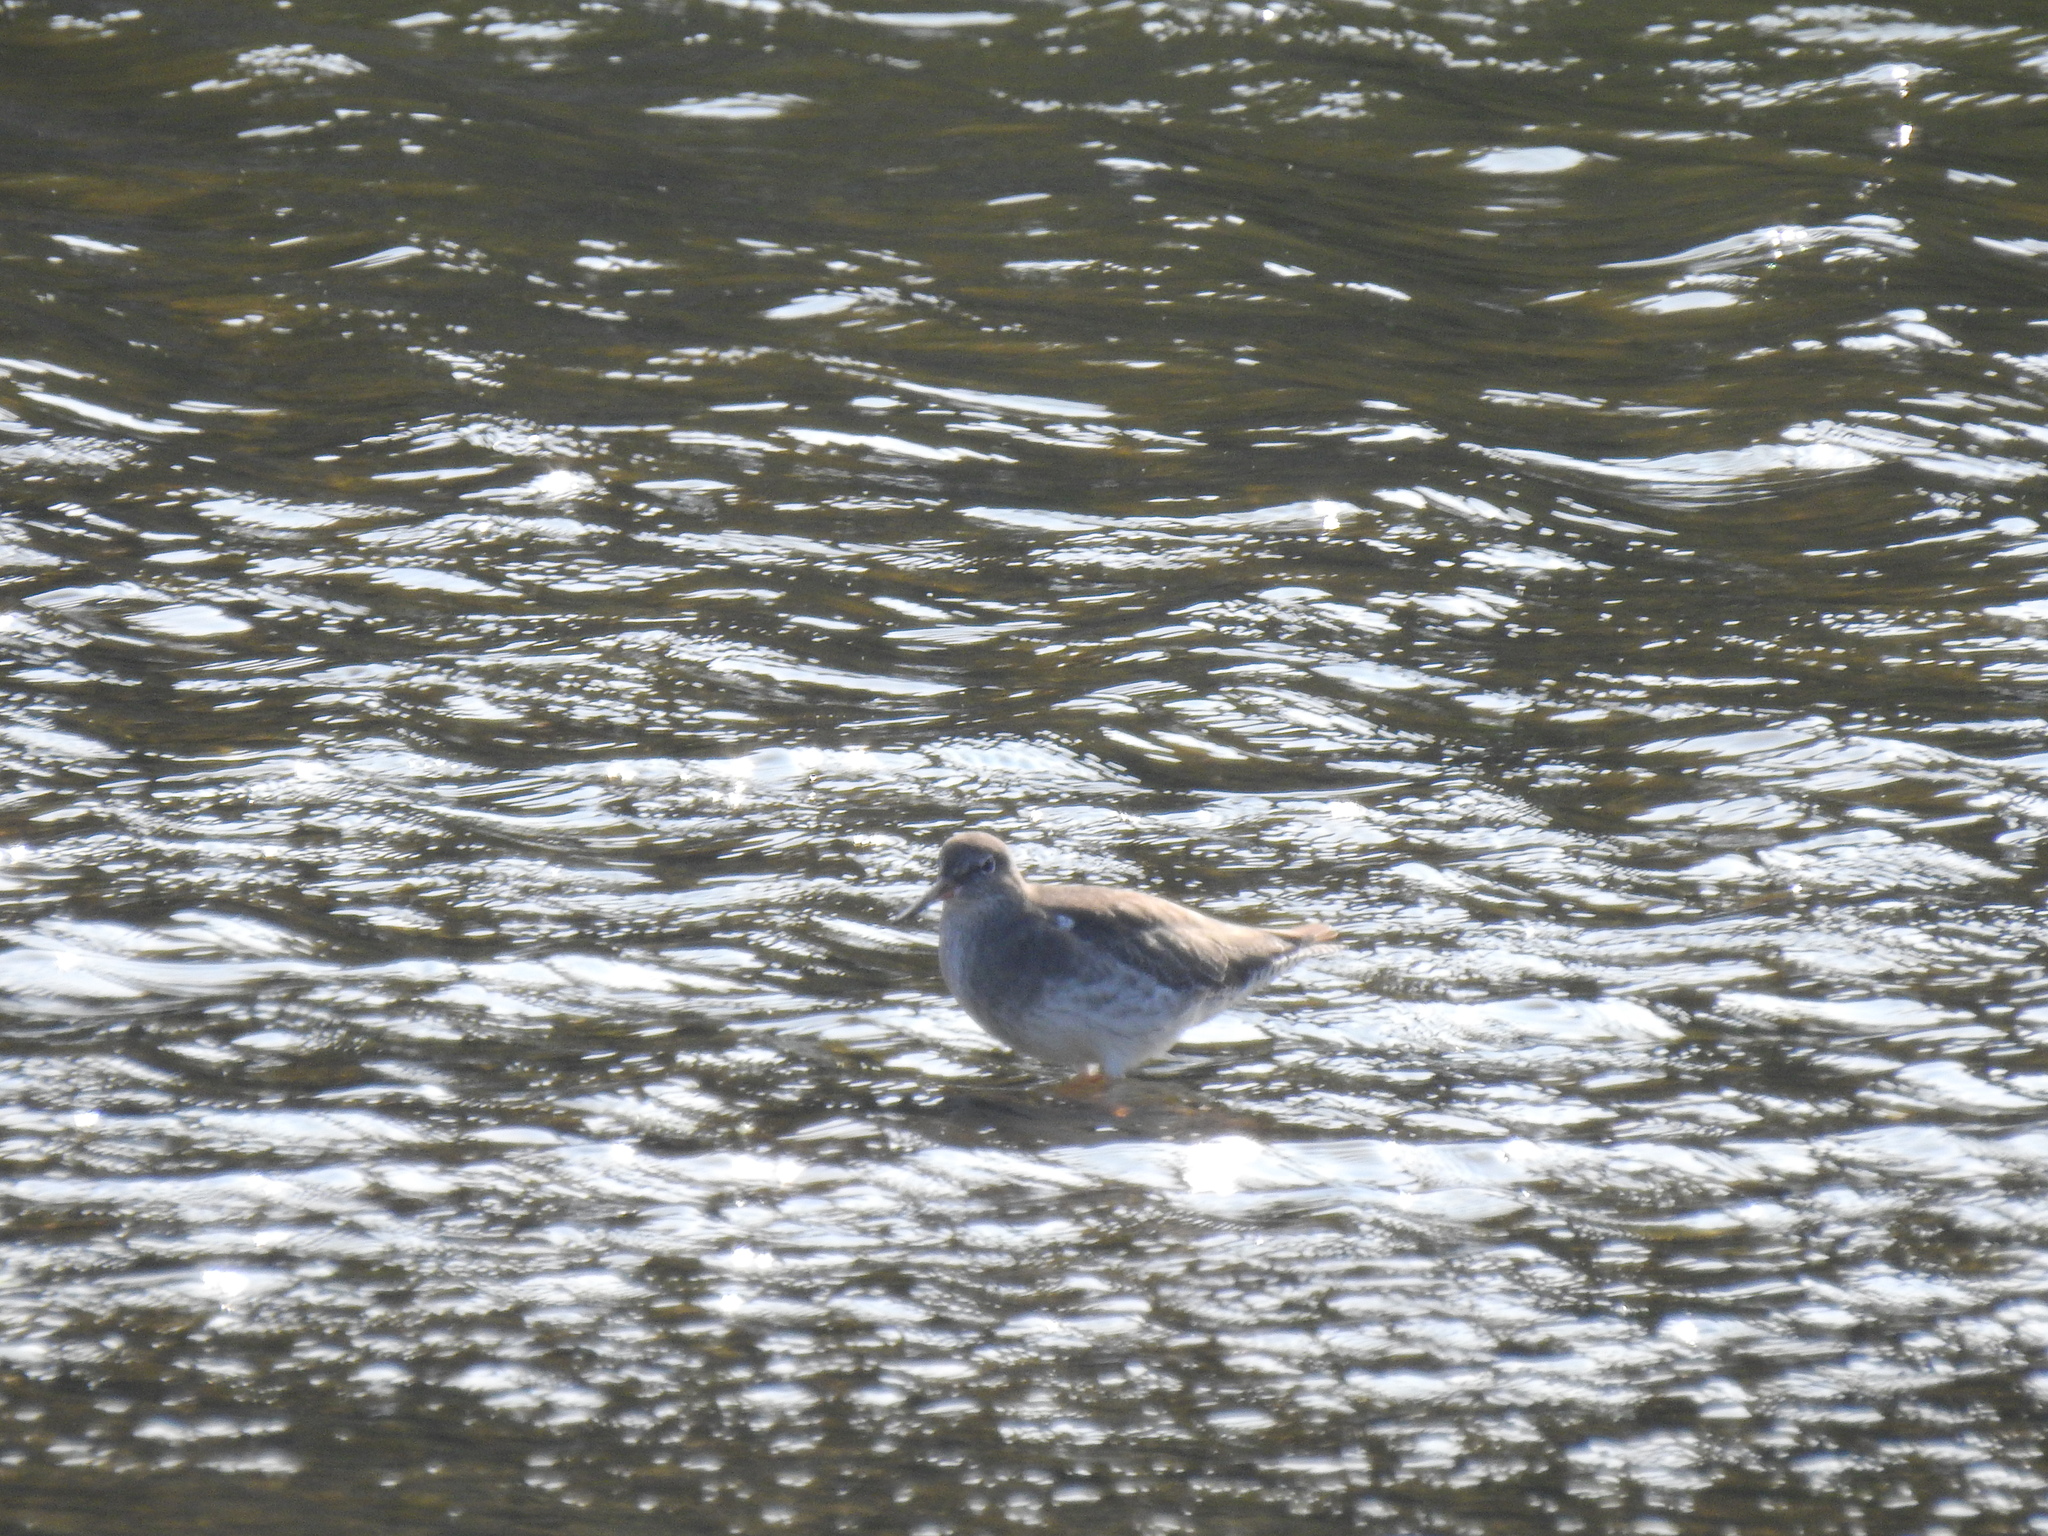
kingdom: Animalia
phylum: Chordata
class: Aves
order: Charadriiformes
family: Scolopacidae
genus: Tringa
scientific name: Tringa totanus
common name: Common redshank
